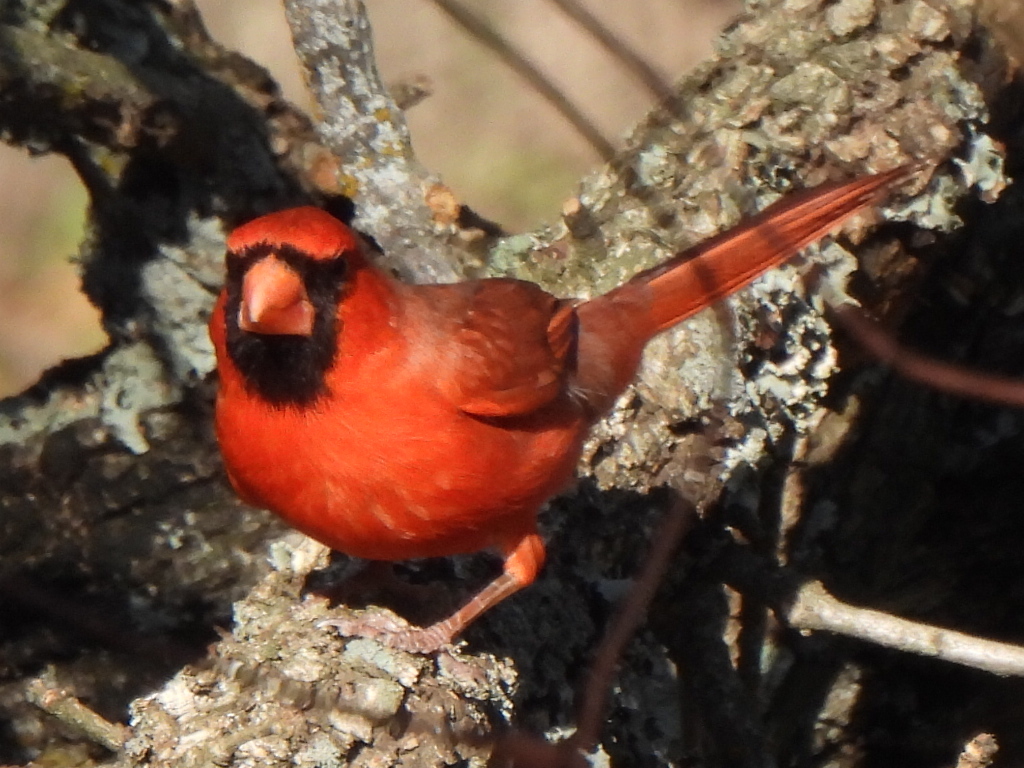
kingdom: Animalia
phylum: Chordata
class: Aves
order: Passeriformes
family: Cardinalidae
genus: Cardinalis
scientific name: Cardinalis cardinalis
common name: Northern cardinal
